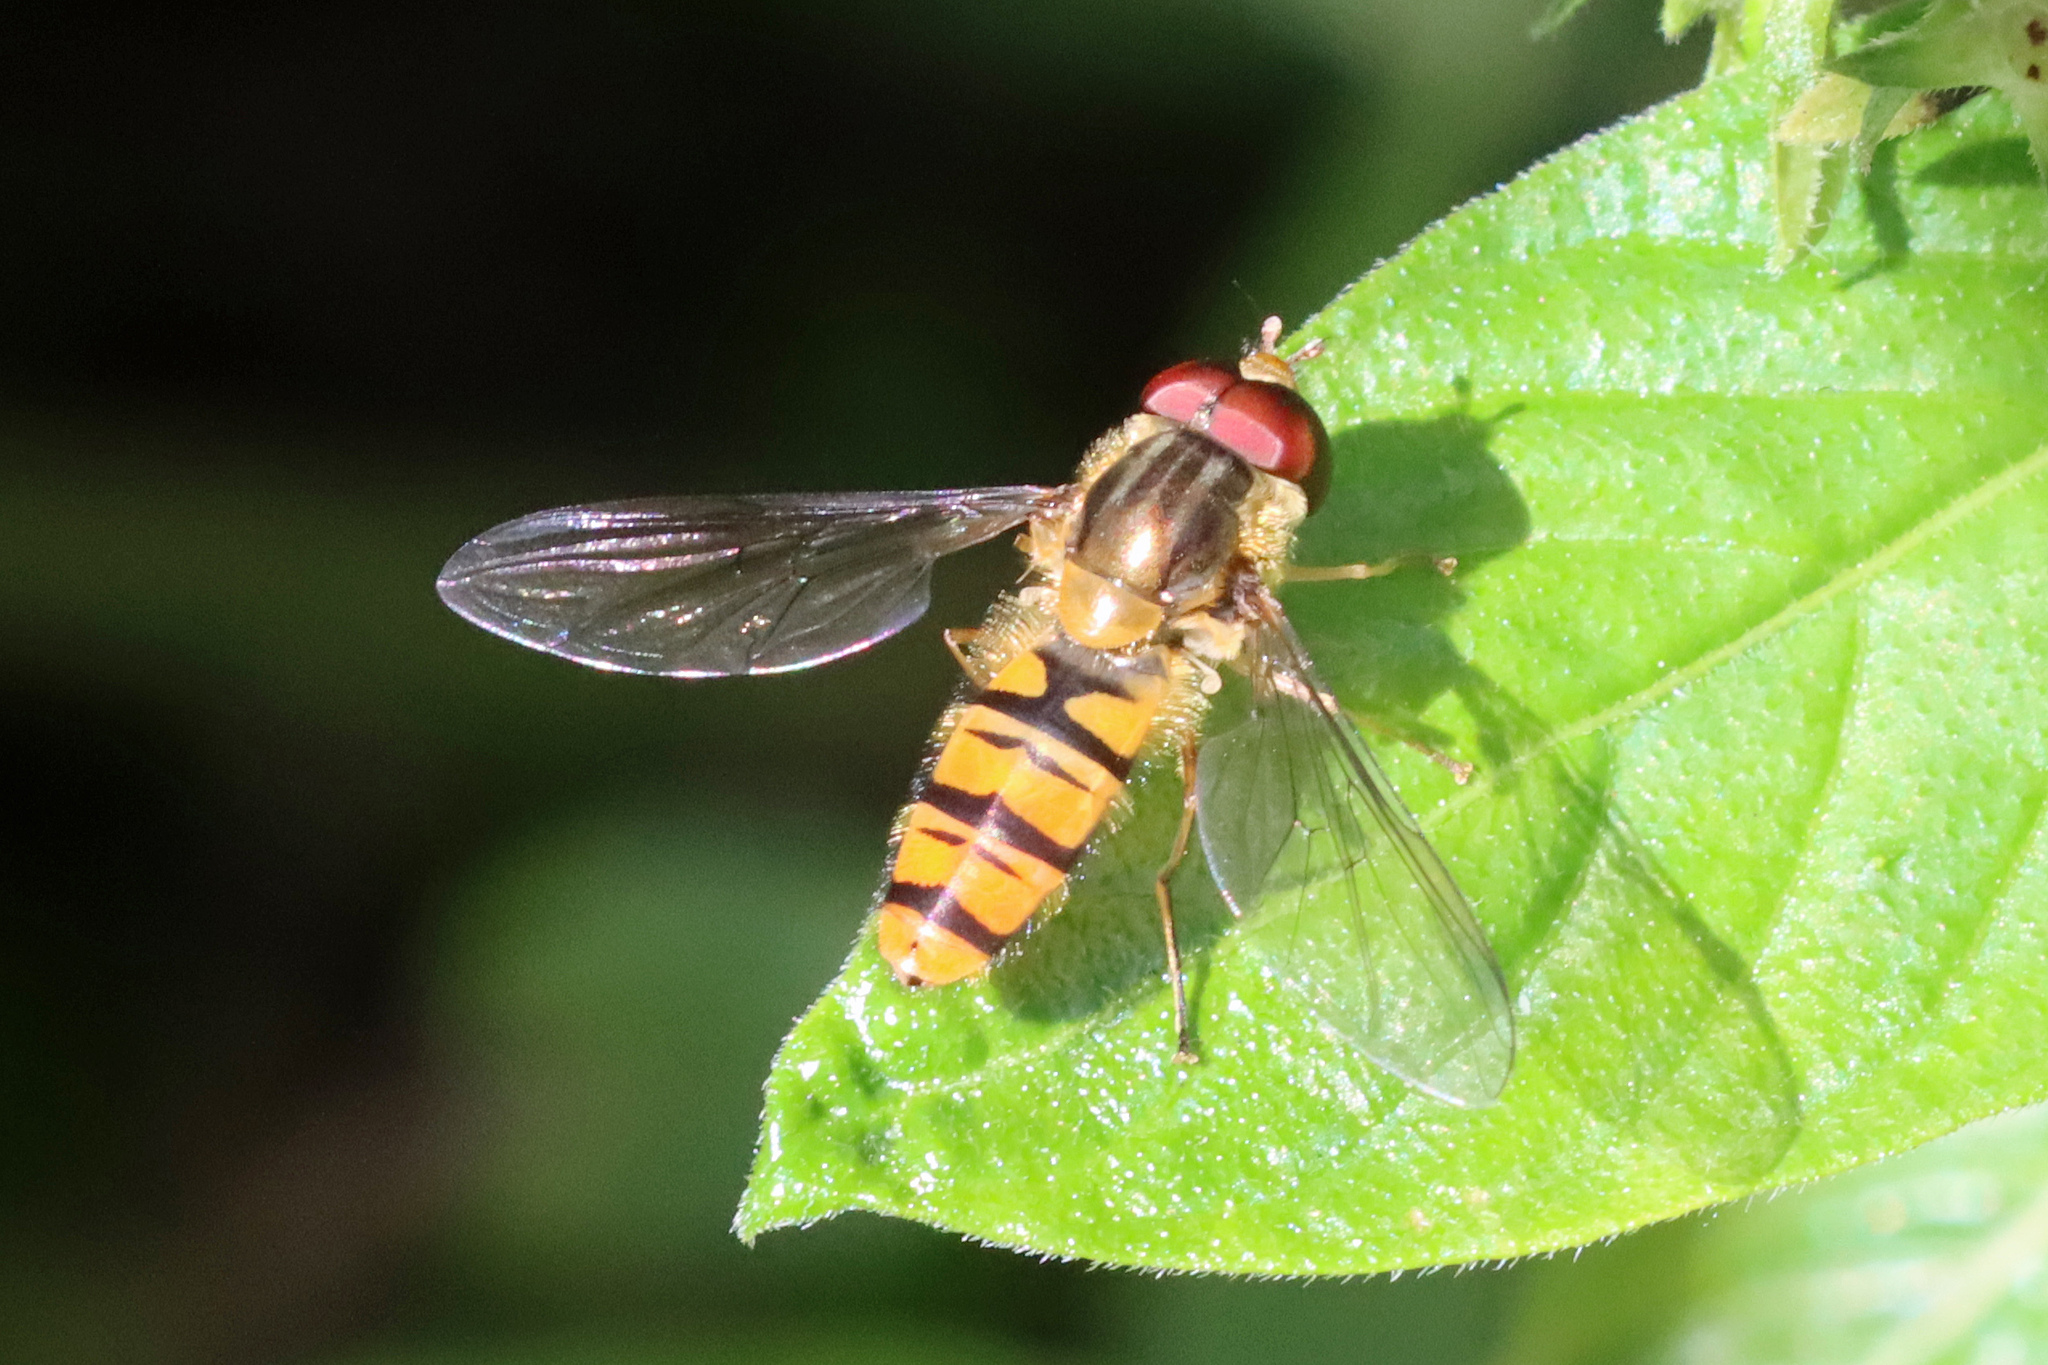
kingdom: Animalia
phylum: Arthropoda
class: Insecta
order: Diptera
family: Syrphidae
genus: Episyrphus
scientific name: Episyrphus balteatus
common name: Marmalade hoverfly
